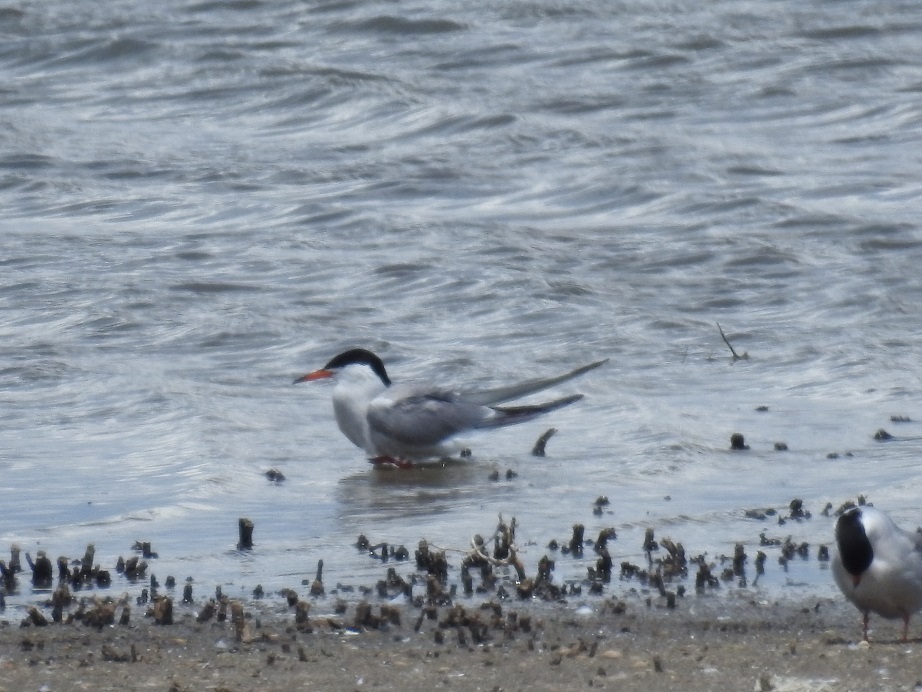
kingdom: Animalia
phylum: Chordata
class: Aves
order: Charadriiformes
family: Laridae
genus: Sterna
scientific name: Sterna hirundo
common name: Common tern
